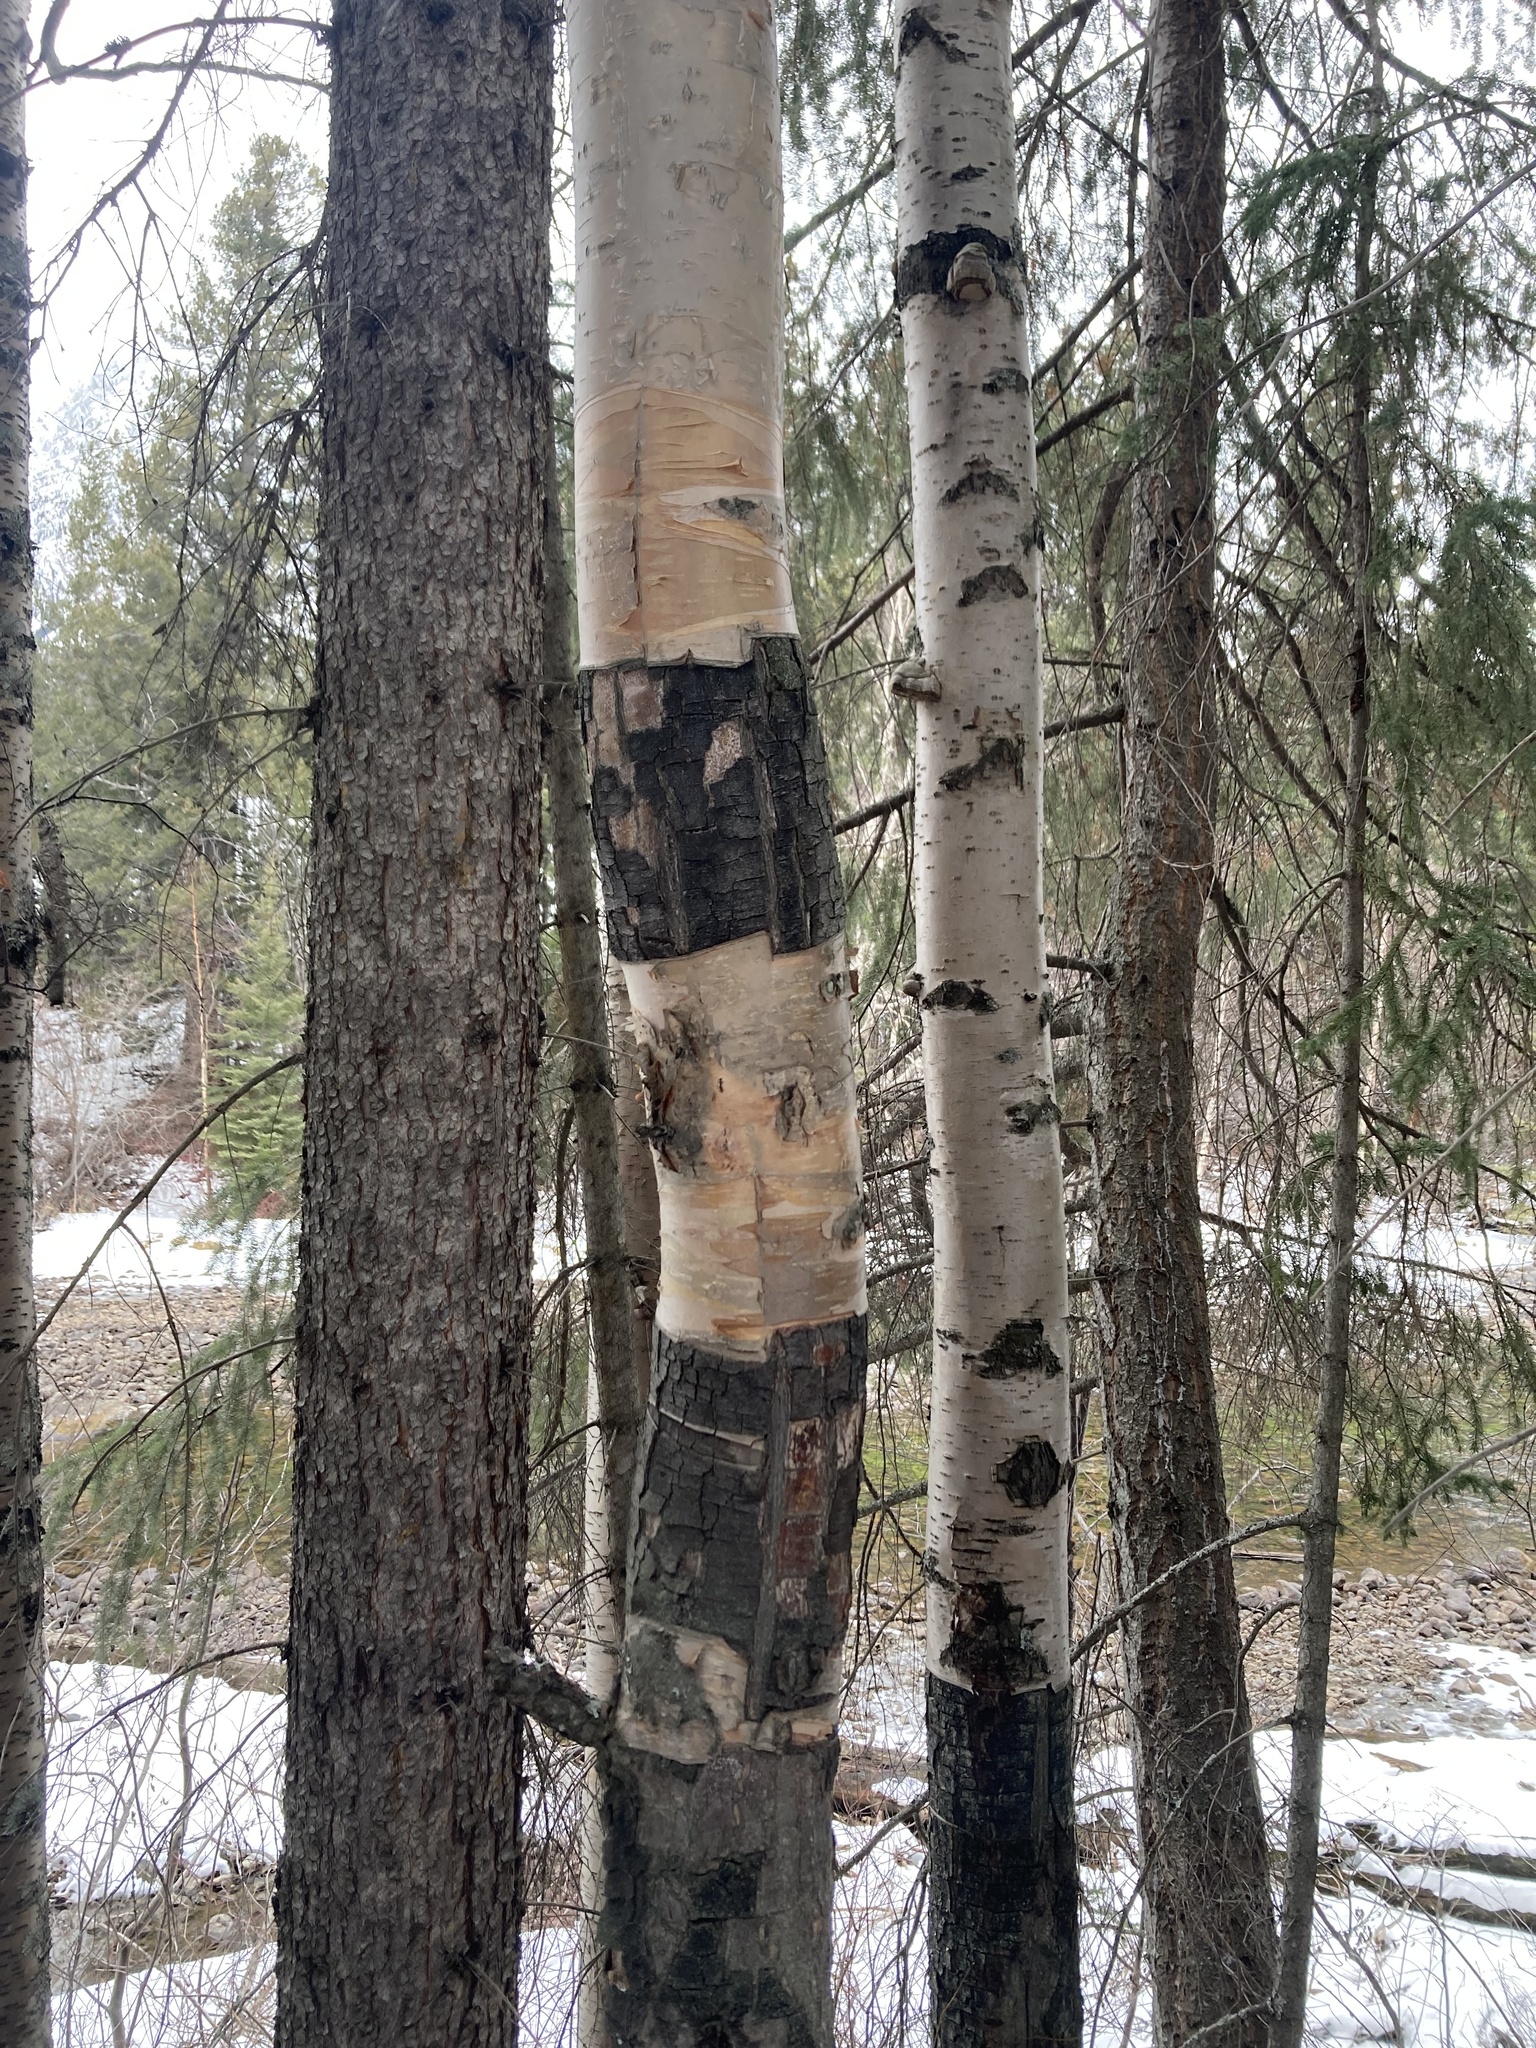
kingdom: Plantae
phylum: Tracheophyta
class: Magnoliopsida
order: Fagales
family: Betulaceae
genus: Betula
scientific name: Betula papyrifera
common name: Paper birch
